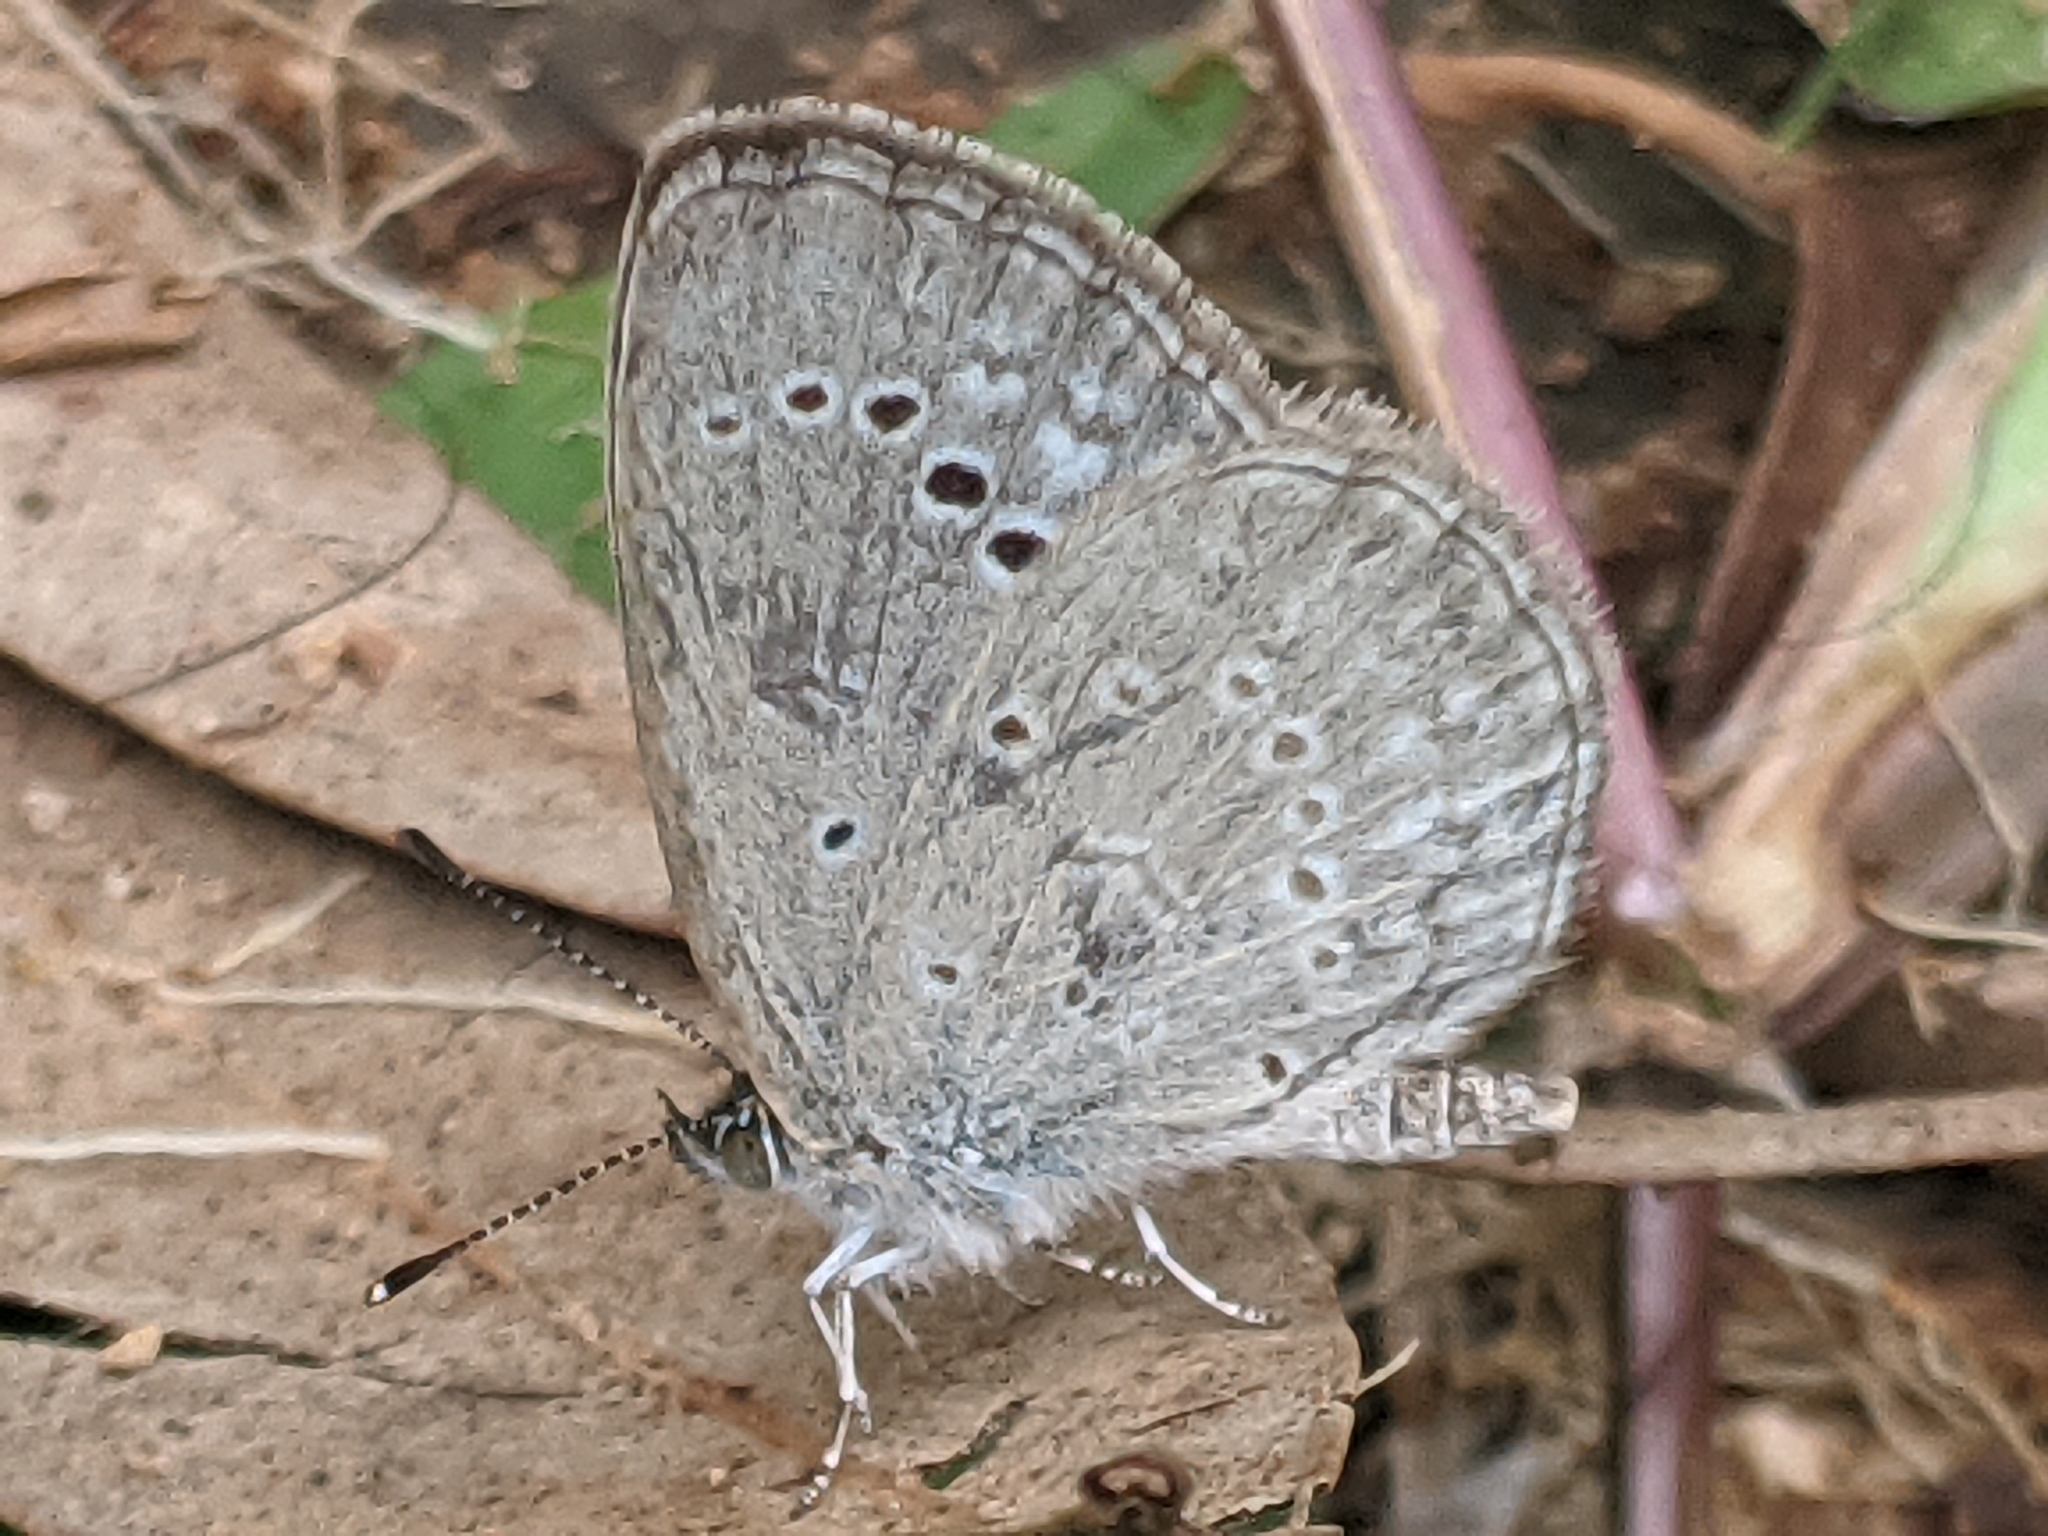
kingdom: Animalia
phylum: Arthropoda
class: Insecta
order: Lepidoptera
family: Lycaenidae
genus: Pseudozizeeria
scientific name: Pseudozizeeria maha
